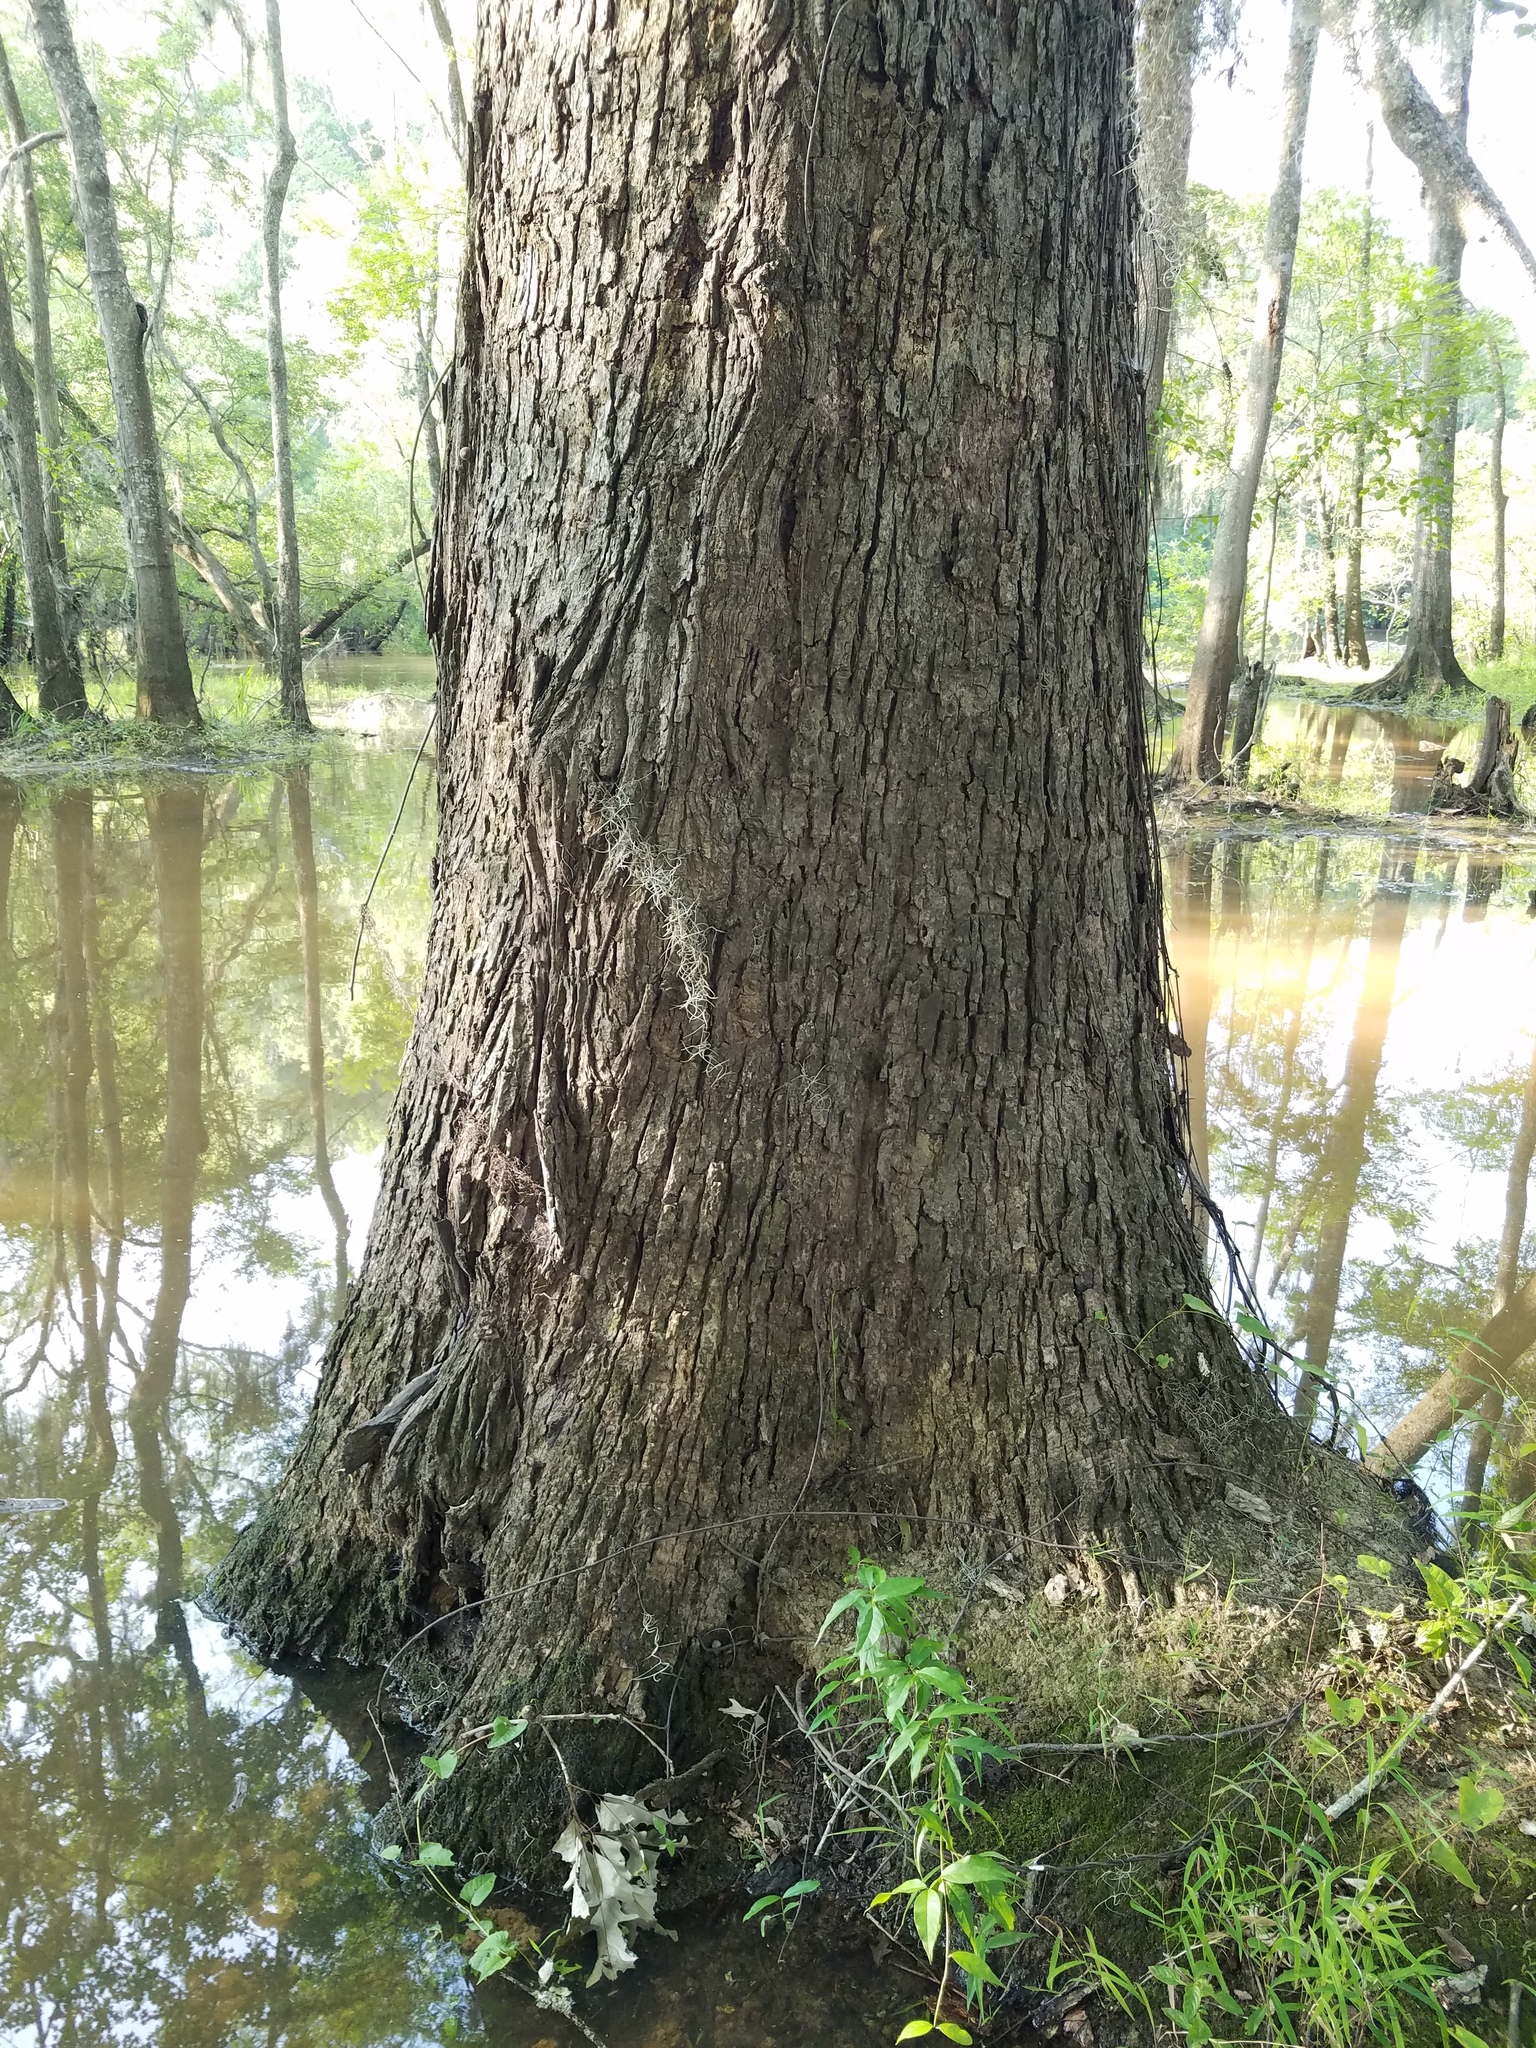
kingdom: Plantae
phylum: Tracheophyta
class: Magnoliopsida
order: Fagales
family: Fagaceae
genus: Quercus
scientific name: Quercus lyrata
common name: Overcup oak
